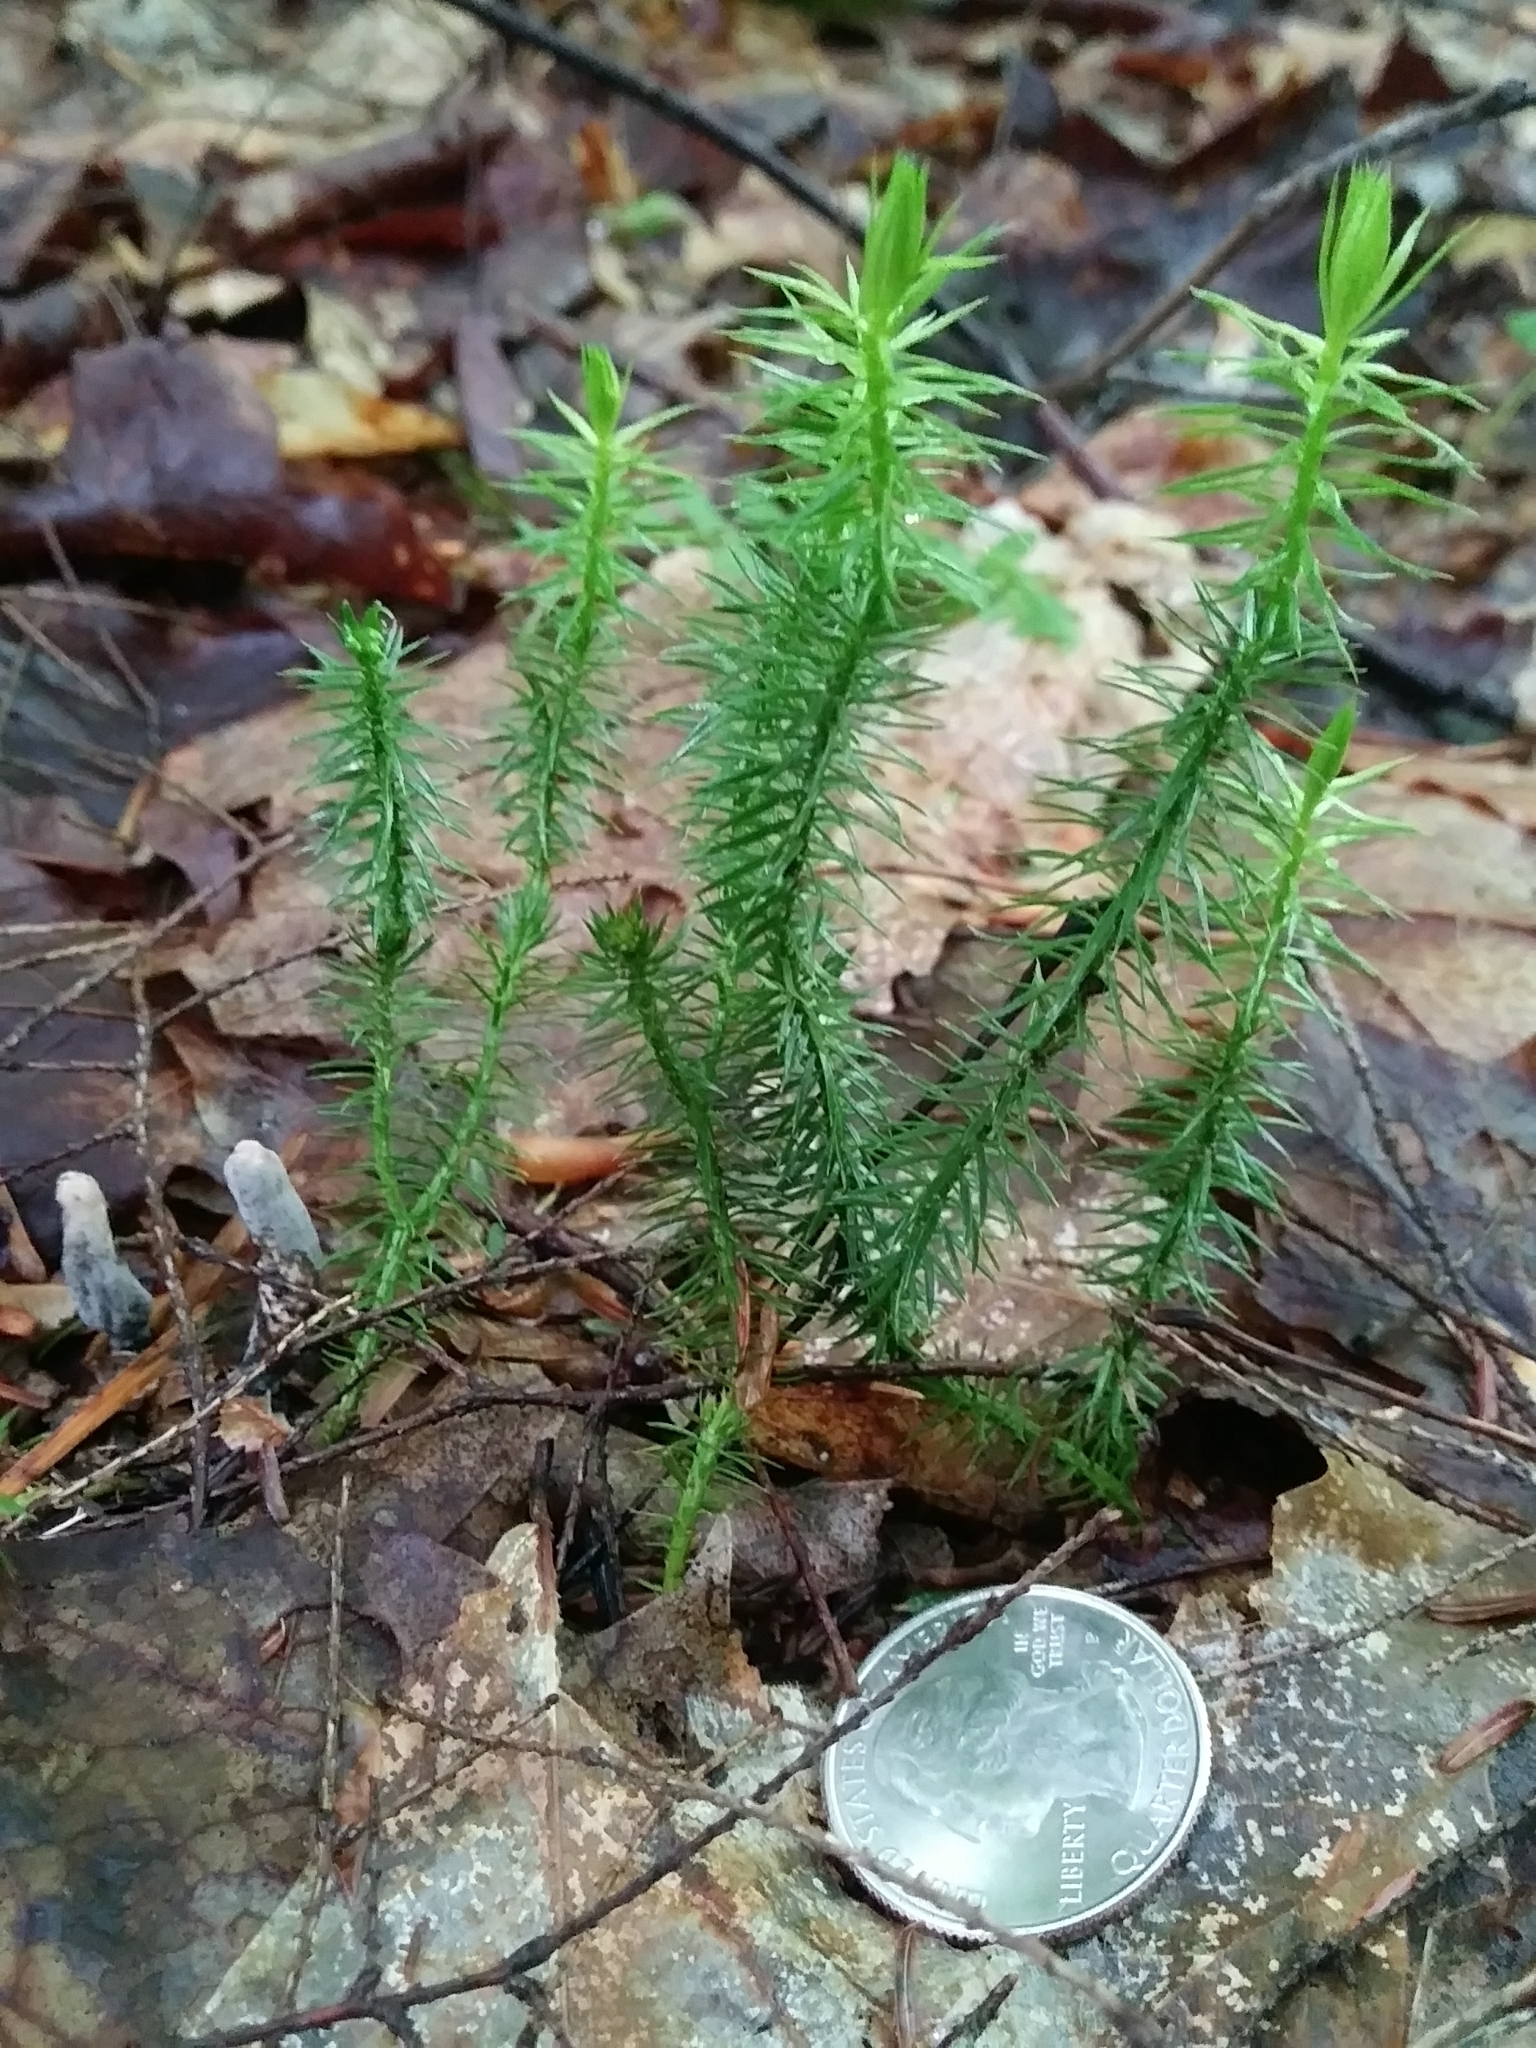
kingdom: Plantae
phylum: Tracheophyta
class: Lycopodiopsida
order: Lycopodiales
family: Lycopodiaceae
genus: Spinulum
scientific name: Spinulum annotinum
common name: Interrupted club-moss
